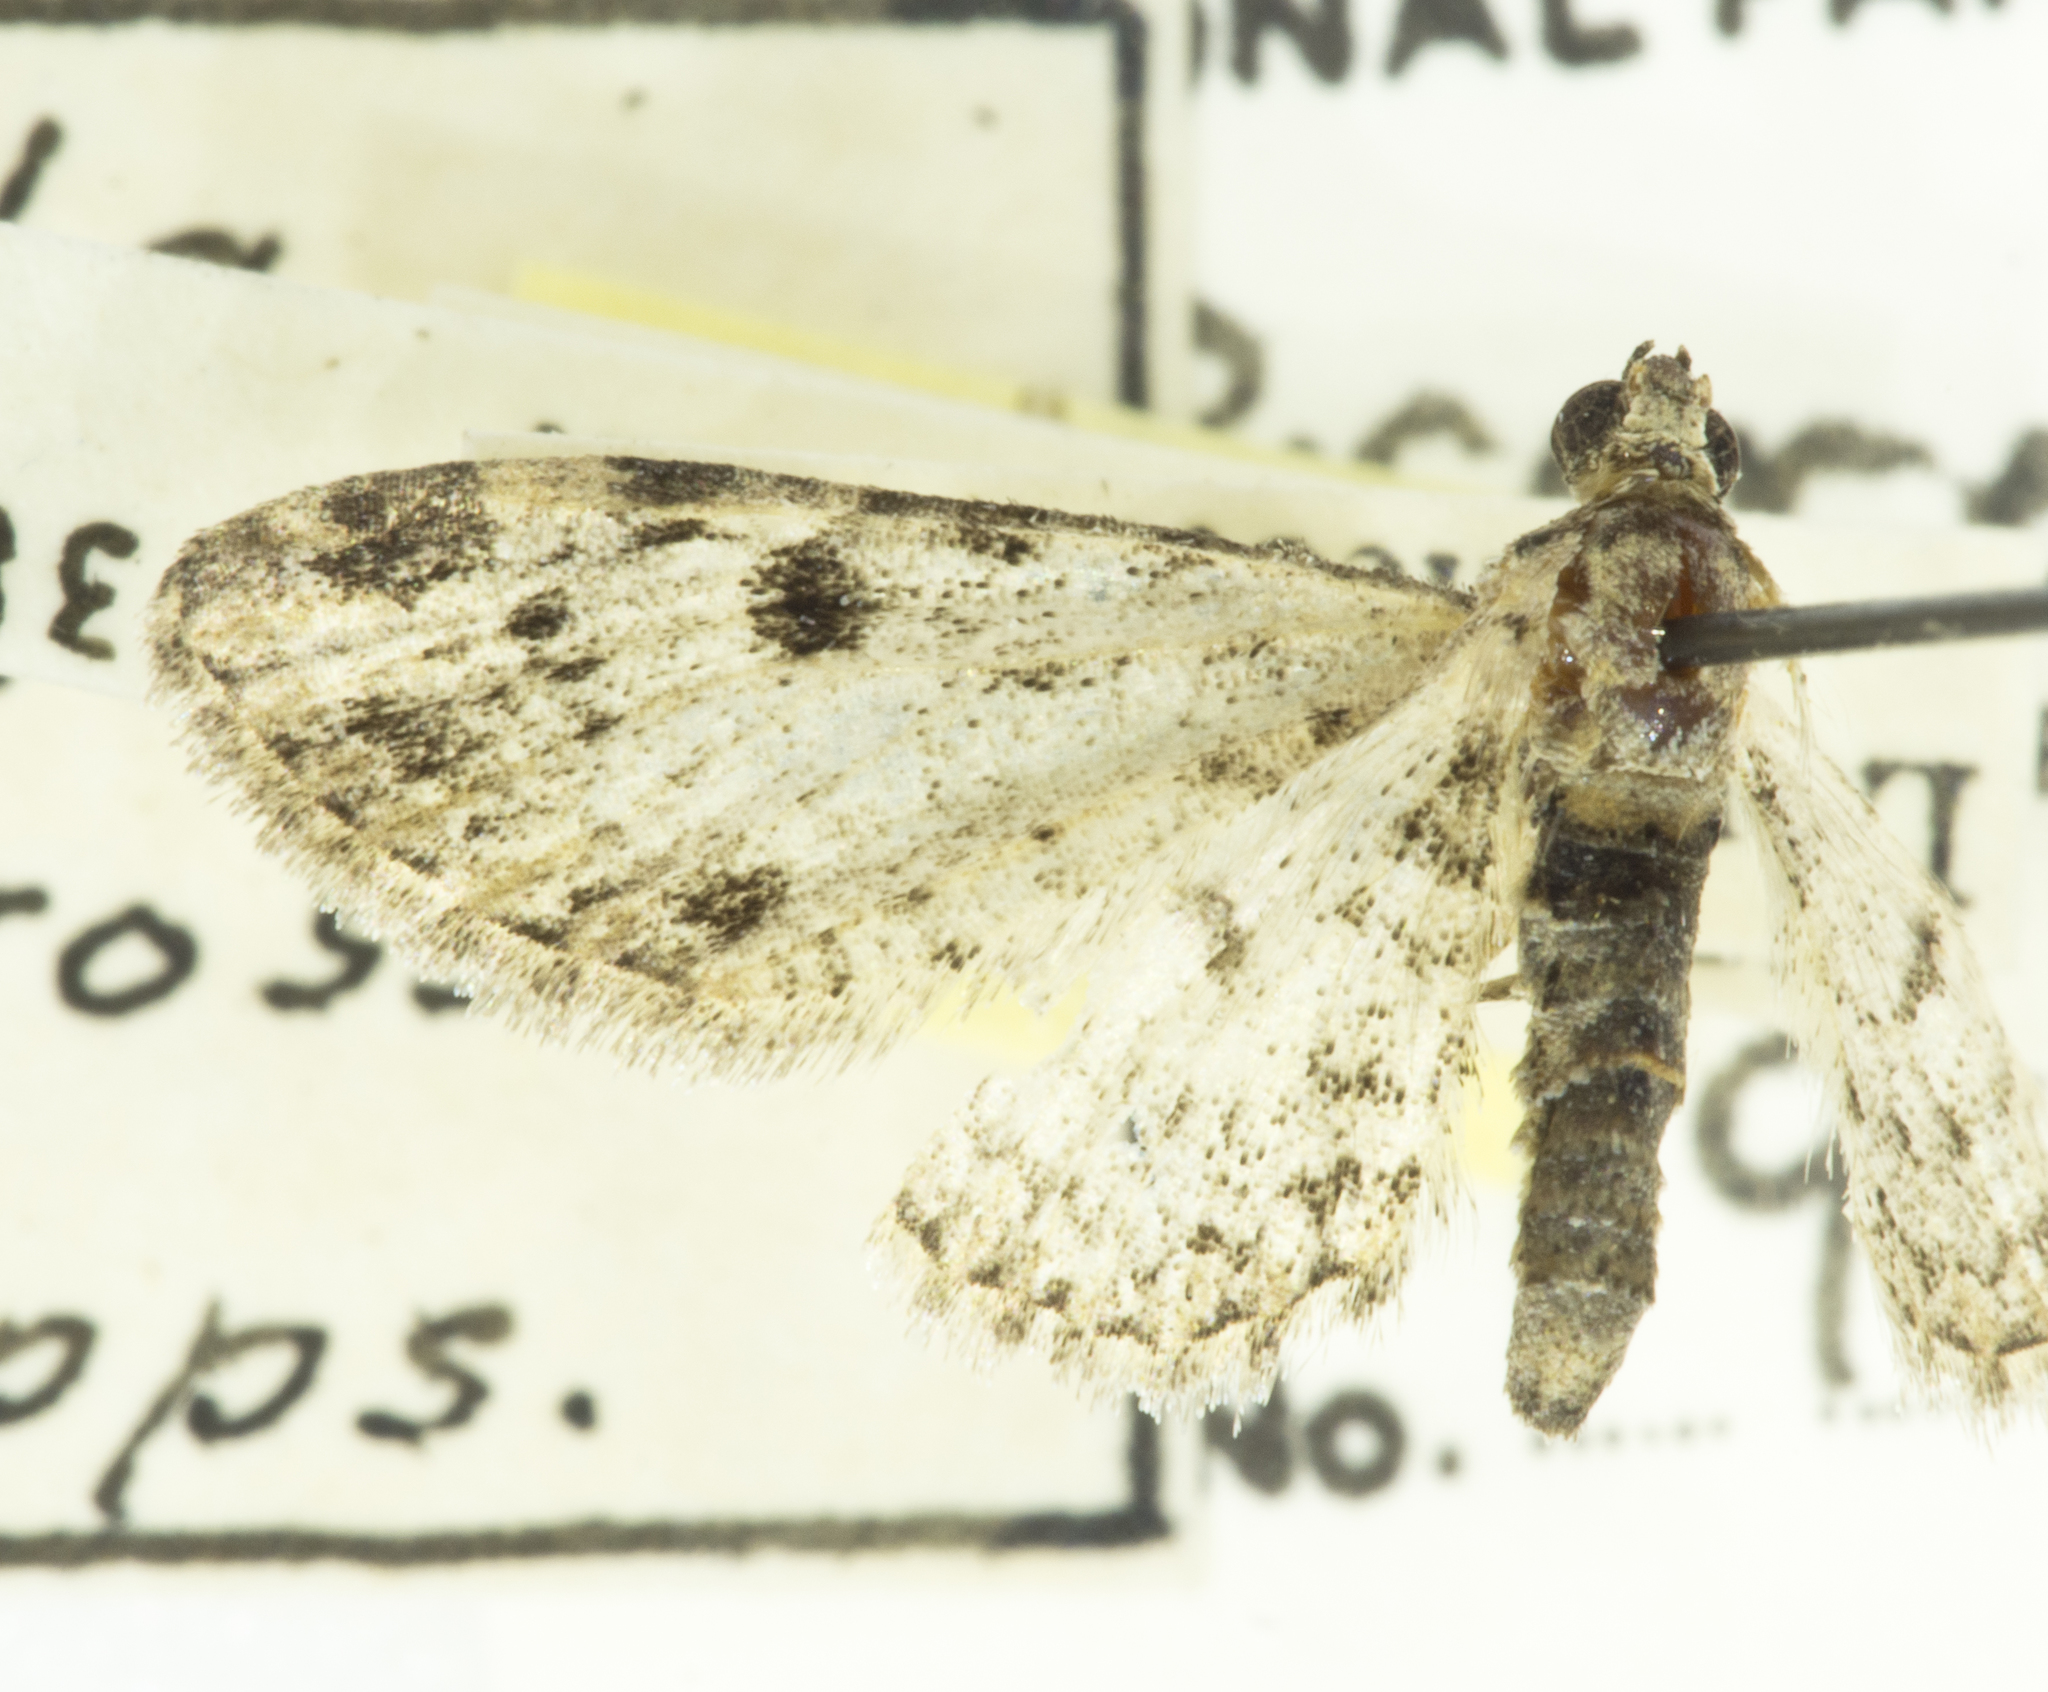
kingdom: Animalia
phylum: Arthropoda
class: Insecta
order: Lepidoptera
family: Geometridae
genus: Eupithecia
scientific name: Eupithecia
